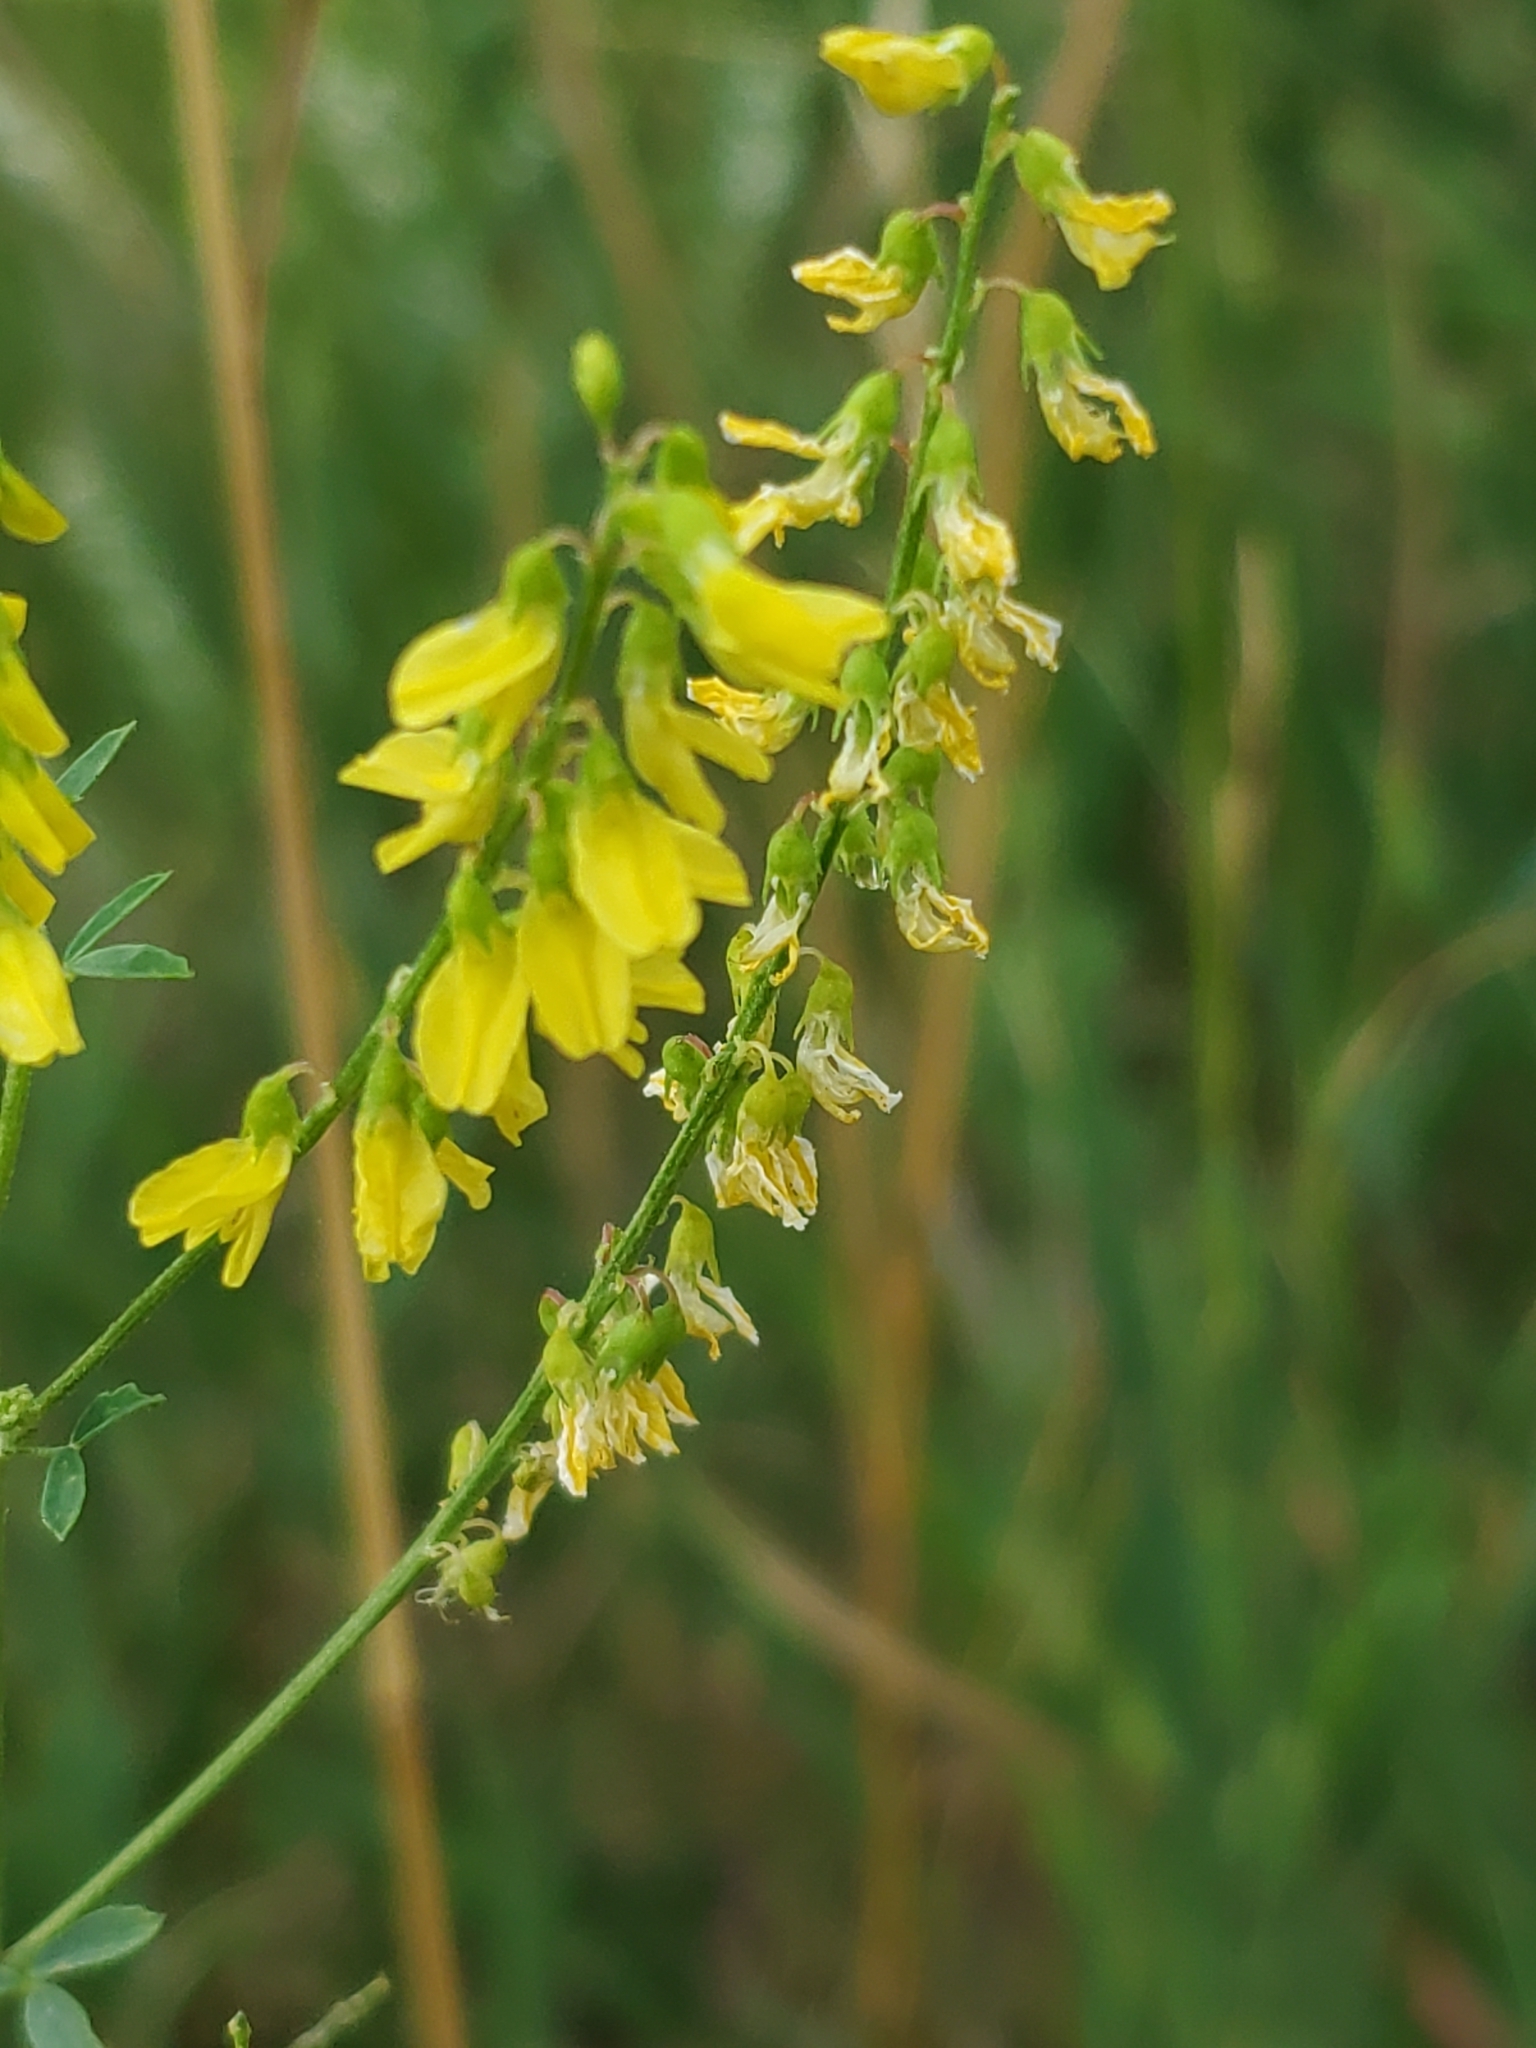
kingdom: Plantae
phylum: Tracheophyta
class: Magnoliopsida
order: Fabales
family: Fabaceae
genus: Melilotus
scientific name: Melilotus officinalis
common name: Sweetclover
